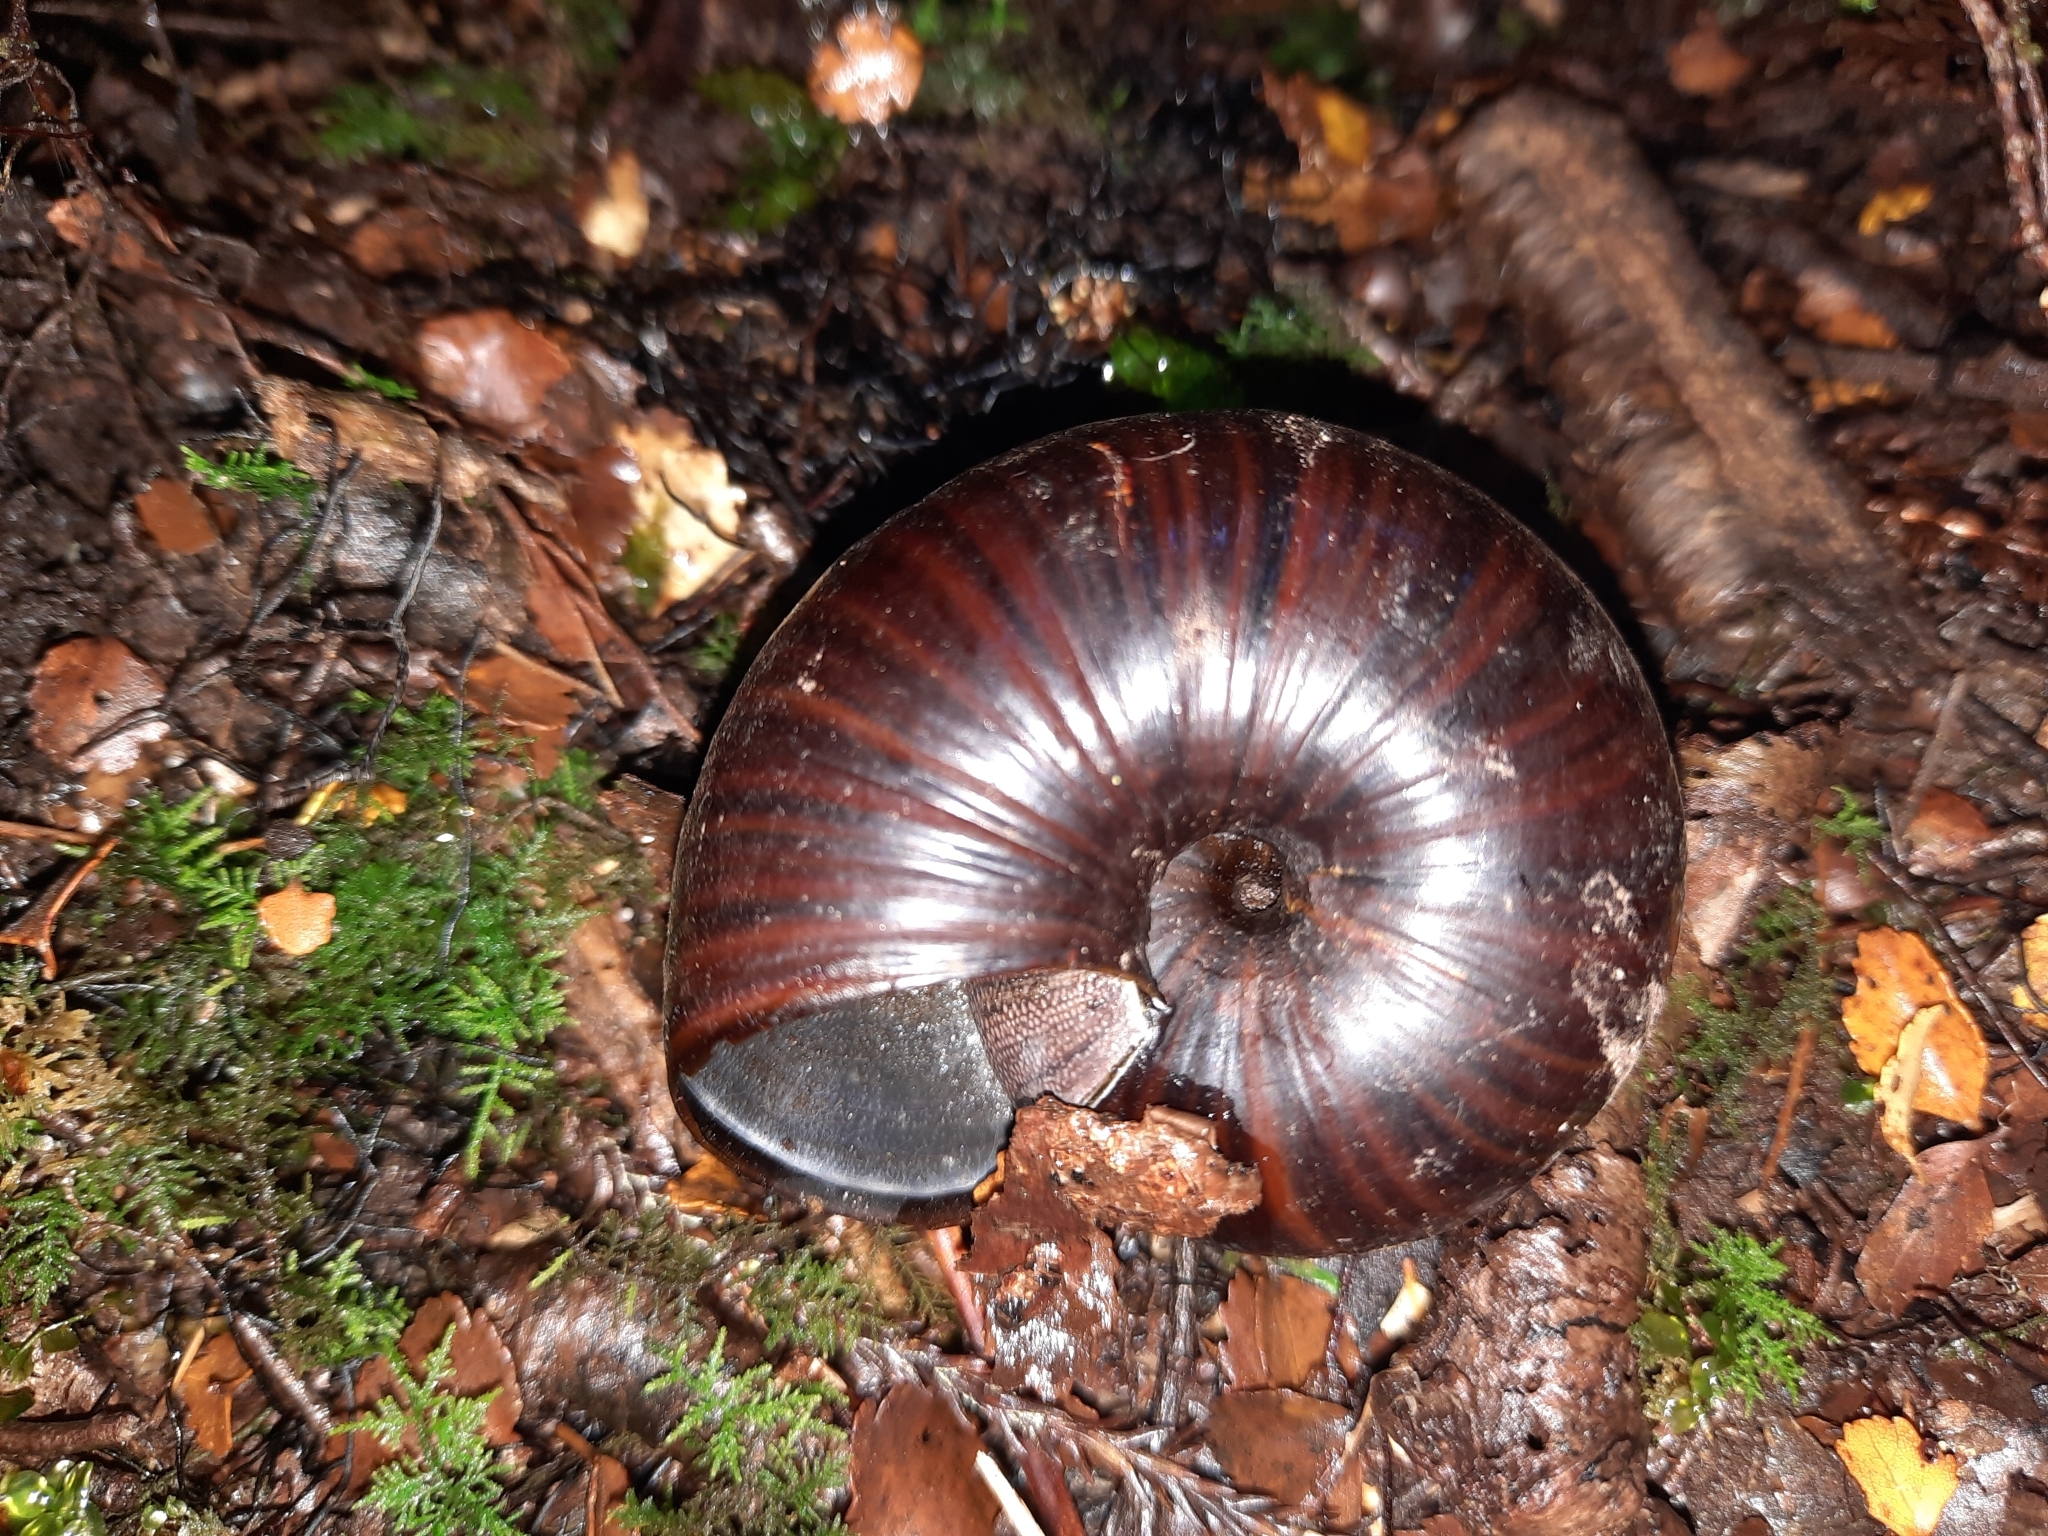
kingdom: Animalia
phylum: Mollusca
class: Gastropoda
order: Stylommatophora
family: Rhytididae
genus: Powelliphanta
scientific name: Powelliphanta annectens
